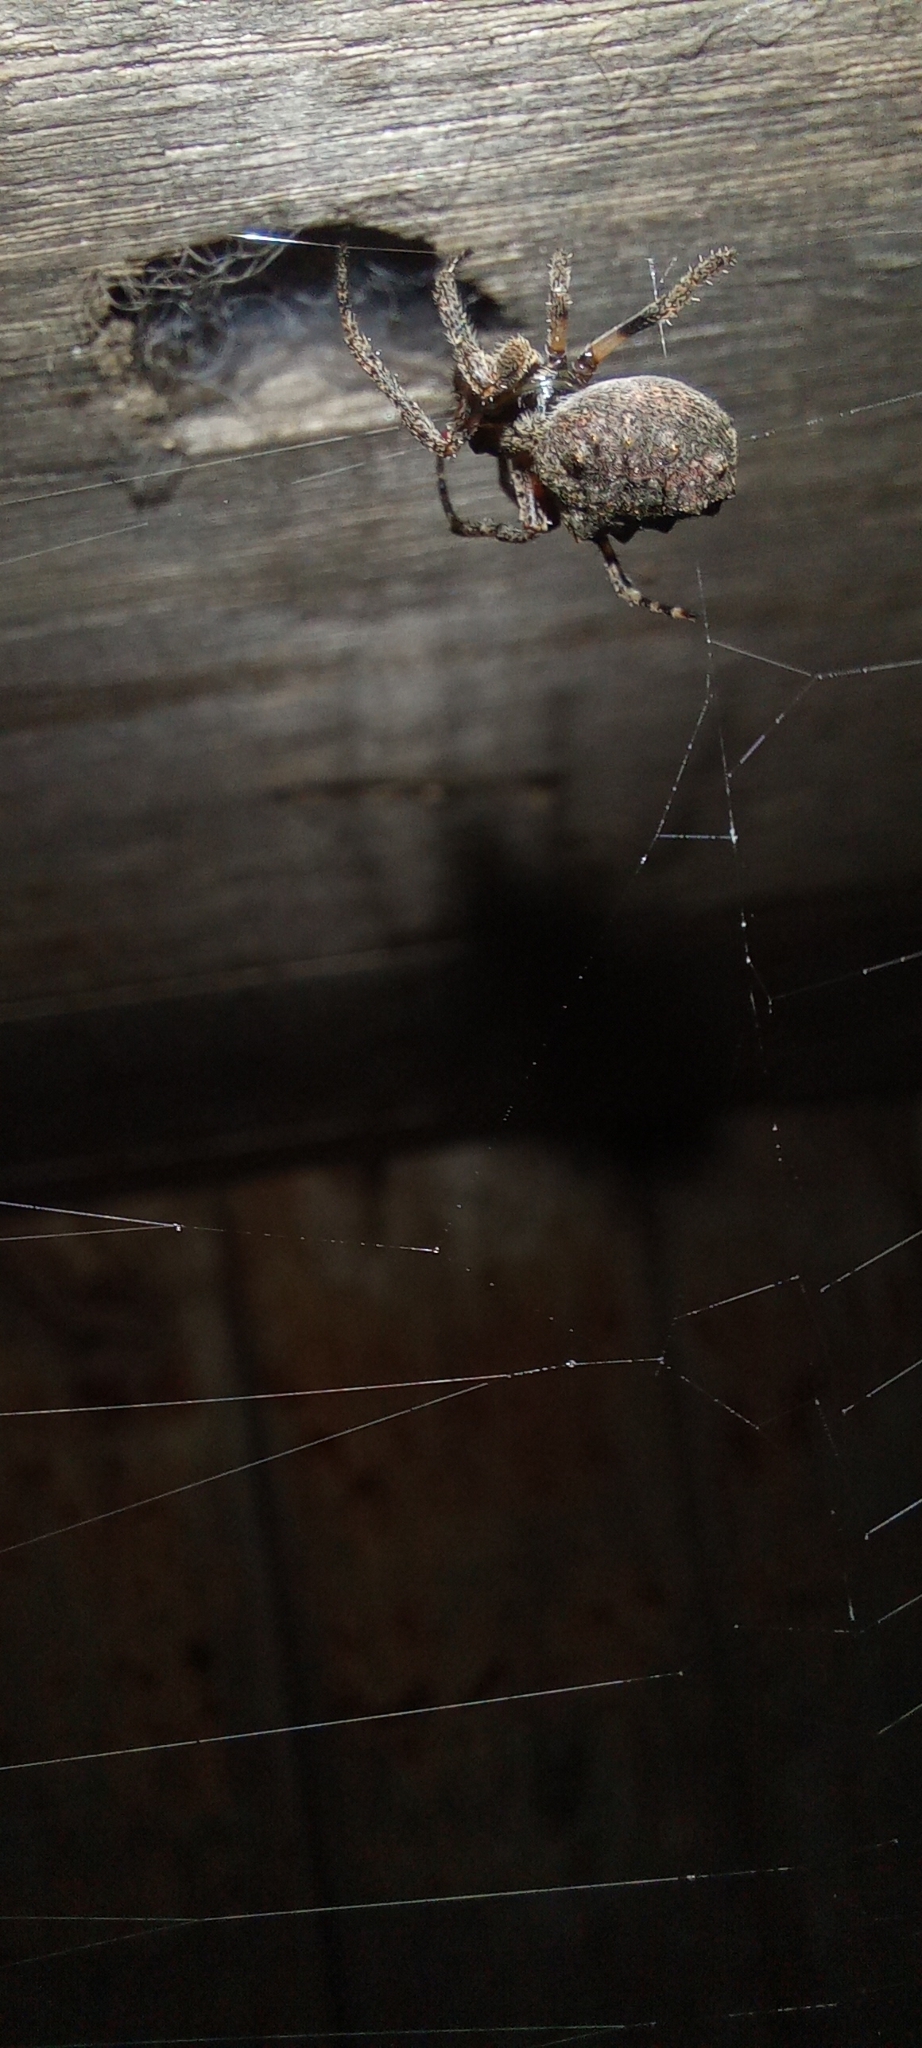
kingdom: Animalia
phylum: Arthropoda
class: Arachnida
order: Araneae
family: Araneidae
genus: Parawixia
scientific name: Parawixia audax
